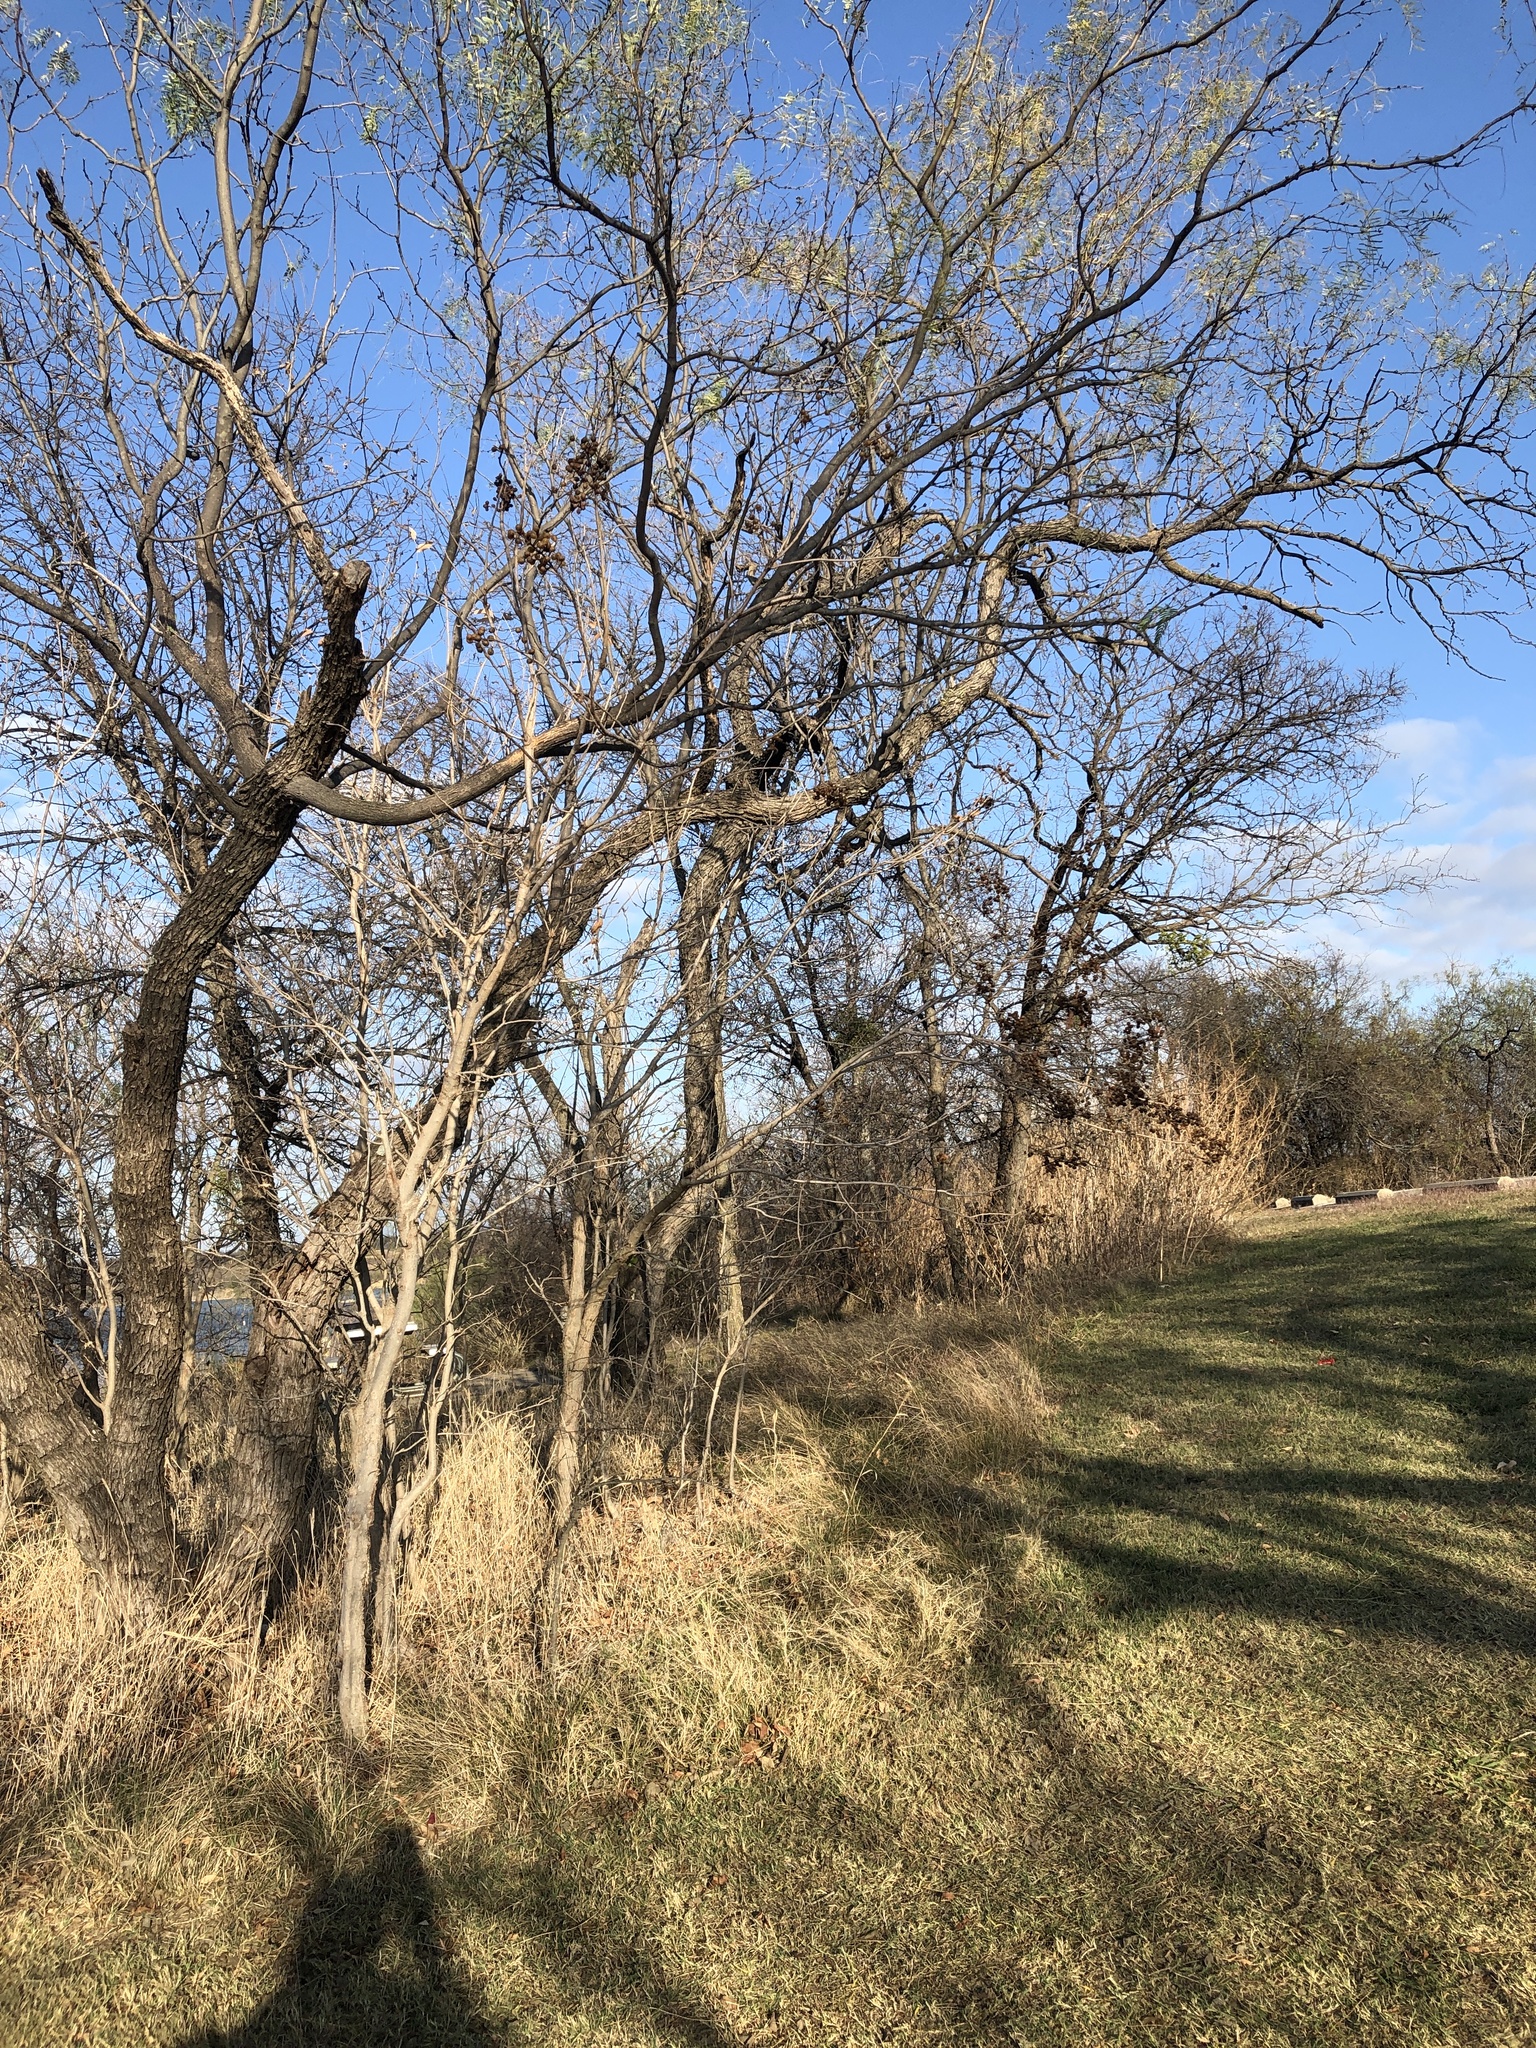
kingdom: Plantae
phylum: Tracheophyta
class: Magnoliopsida
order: Sapindales
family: Sapindaceae
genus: Sapindus
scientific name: Sapindus drummondii
